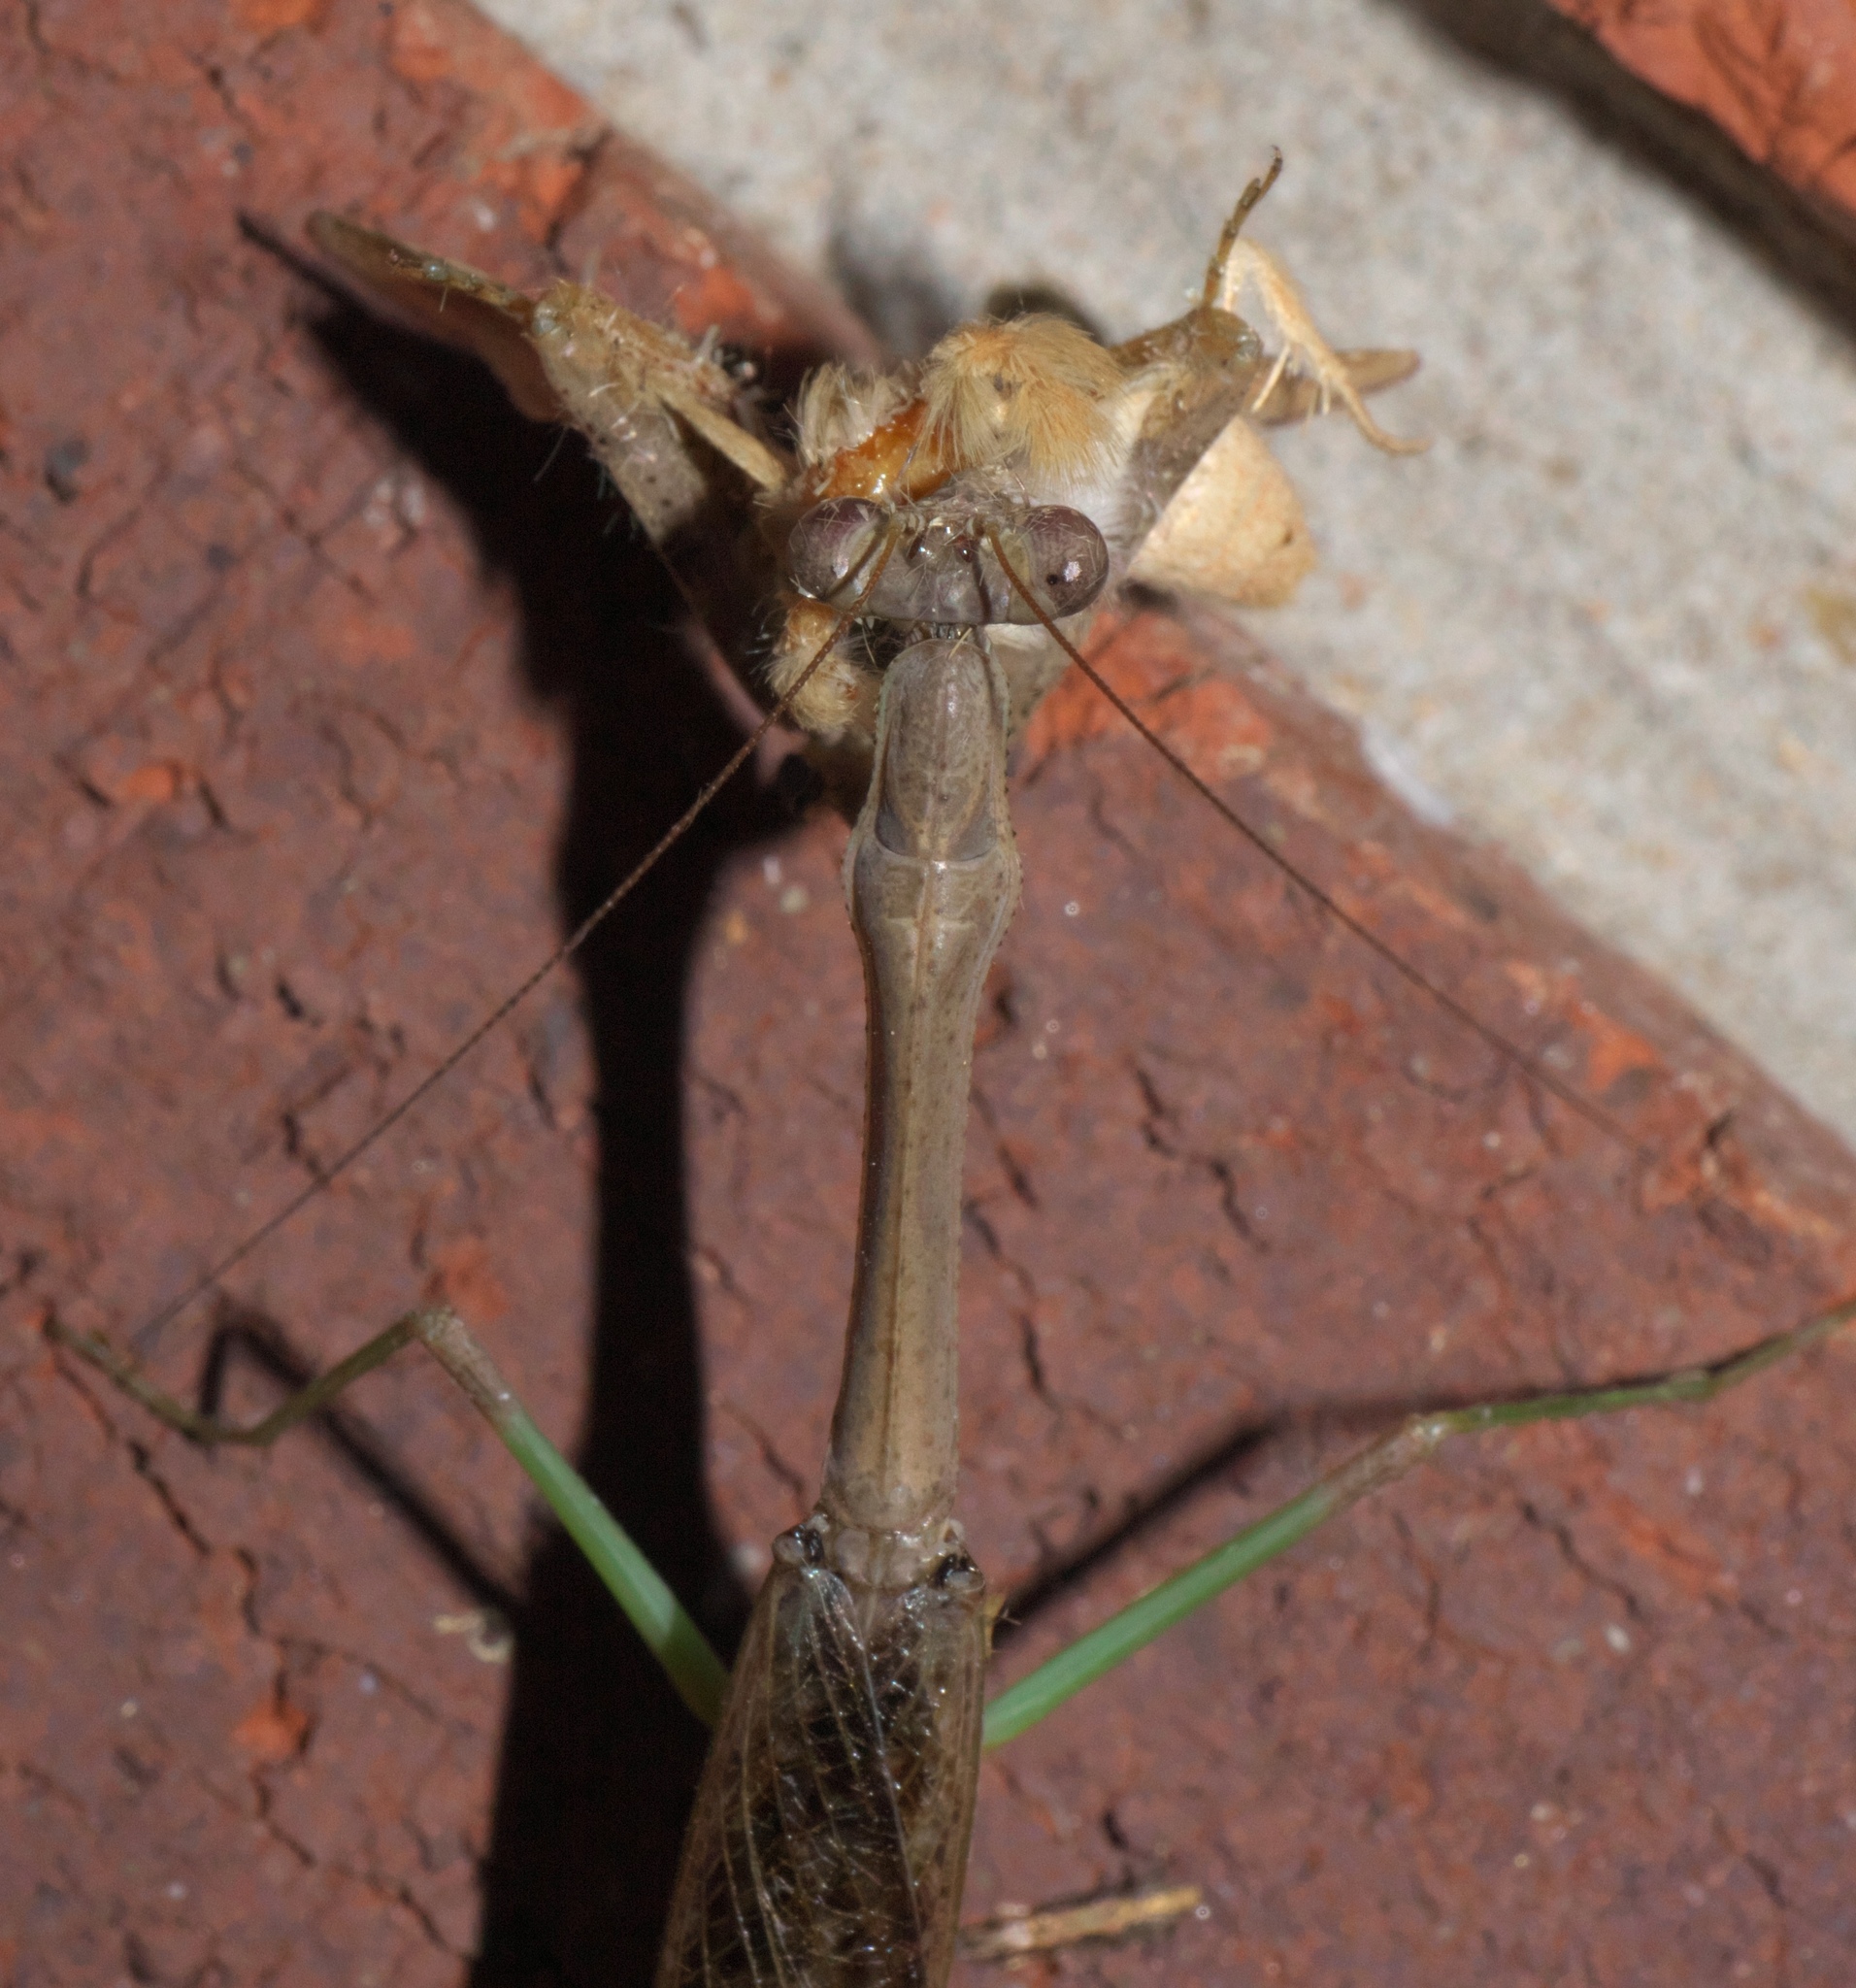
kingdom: Animalia
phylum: Arthropoda
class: Insecta
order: Mantodea
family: Mantidae
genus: Stagmomantis
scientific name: Stagmomantis carolina
